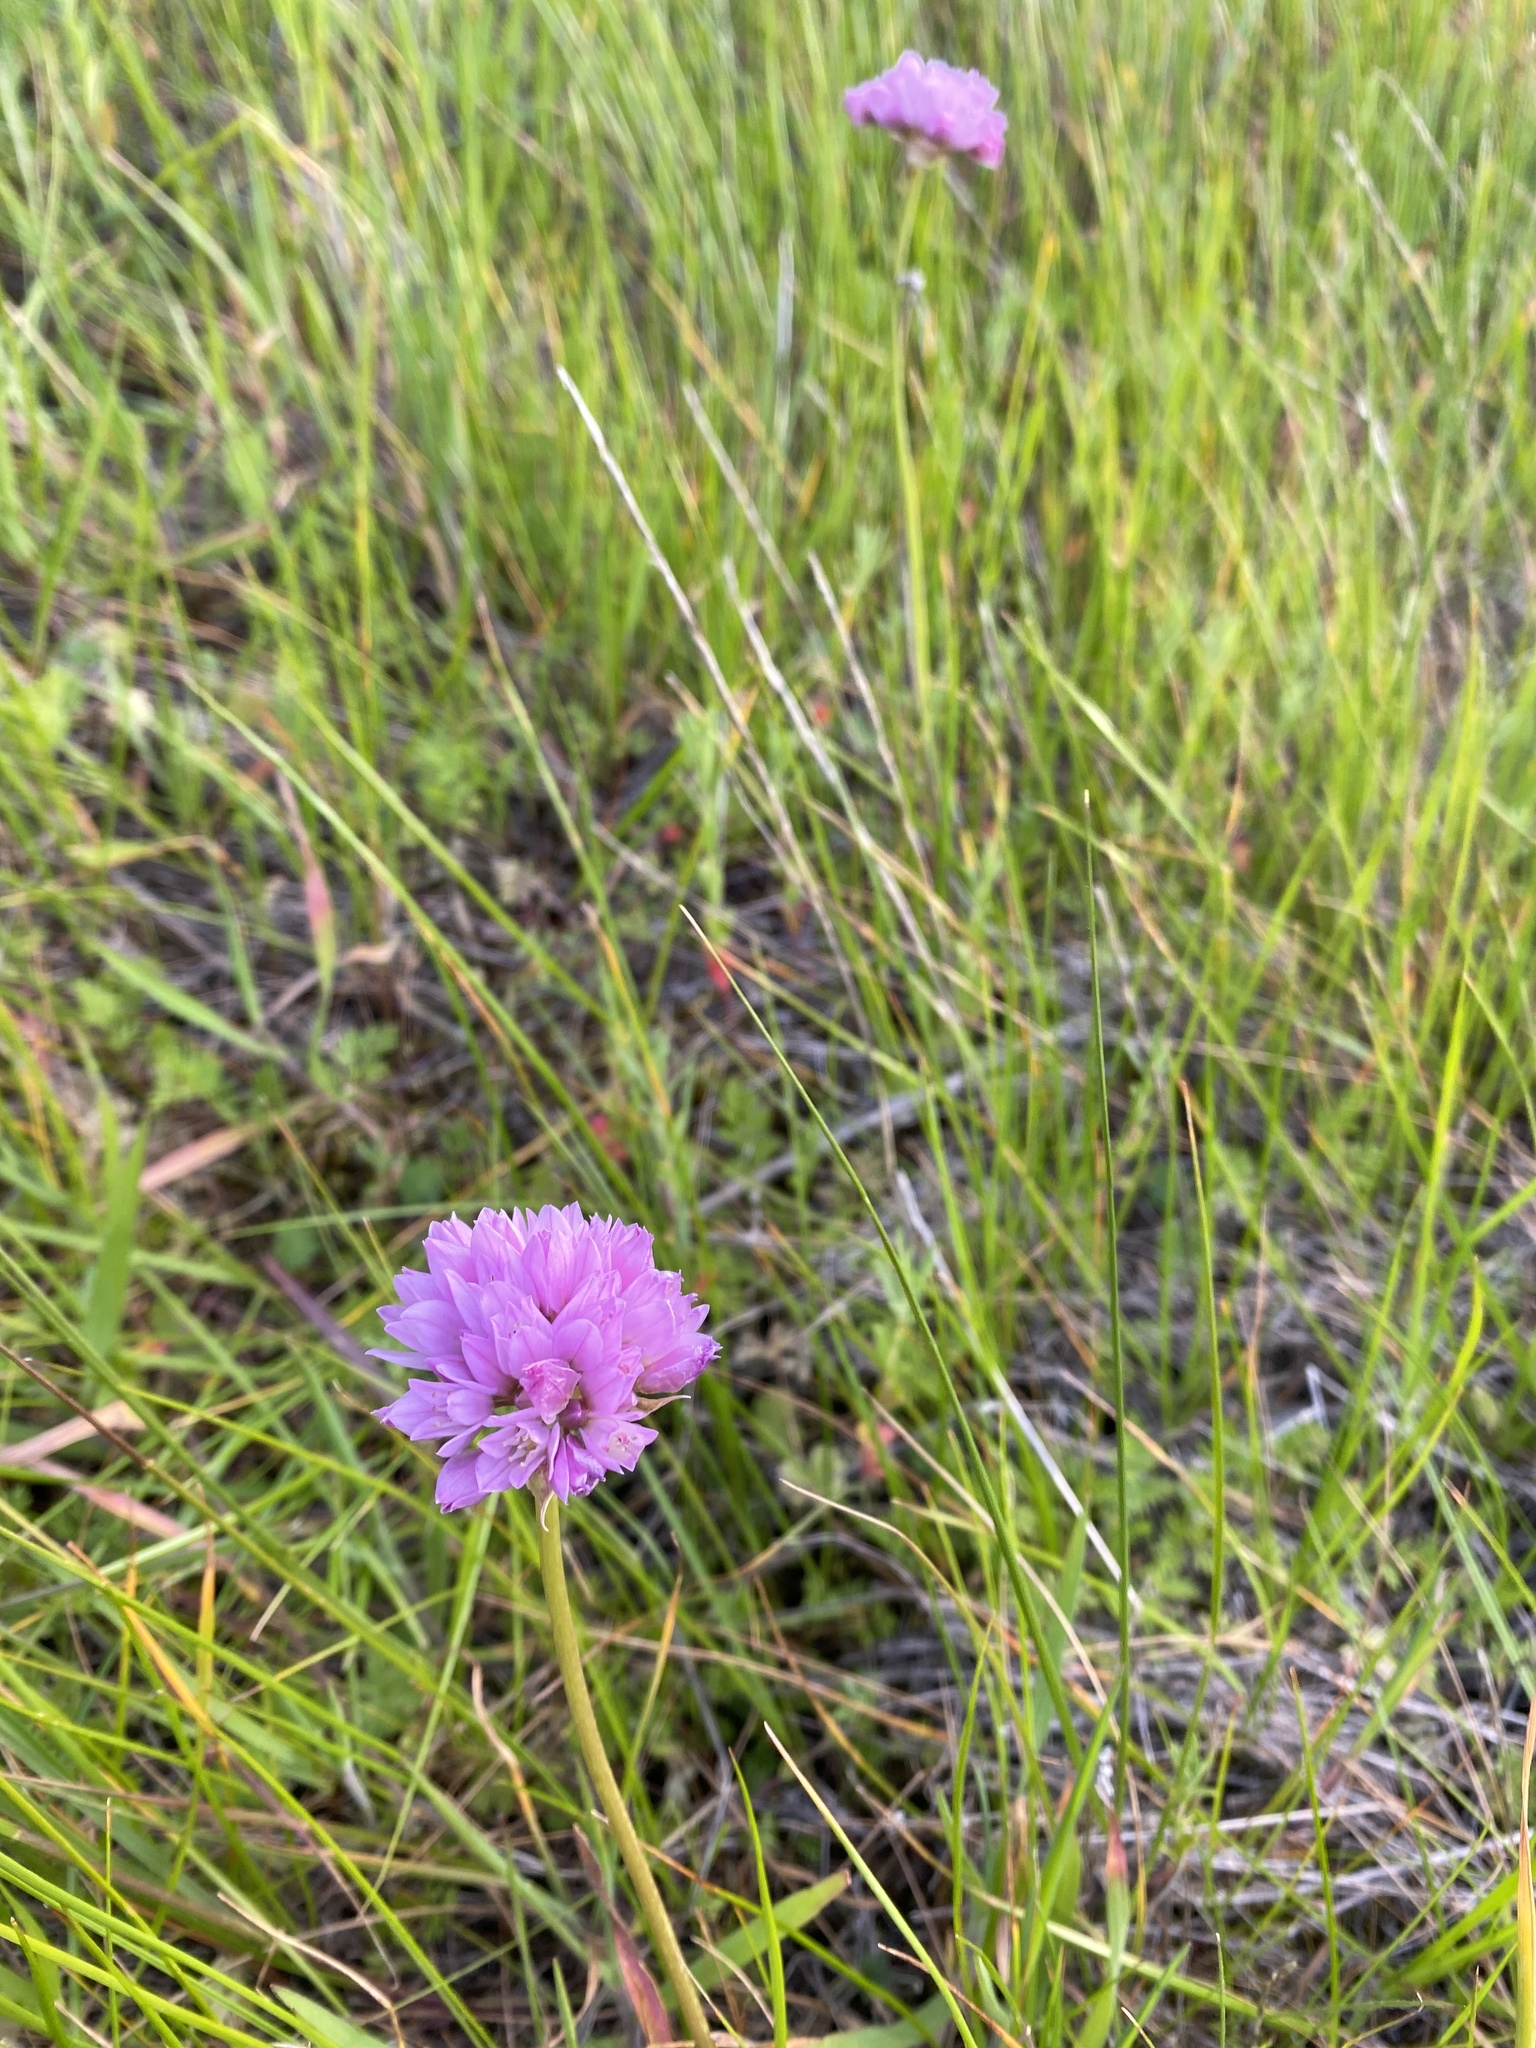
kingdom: Plantae
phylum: Tracheophyta
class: Liliopsida
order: Asparagales
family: Amaryllidaceae
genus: Allium
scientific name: Allium serra
